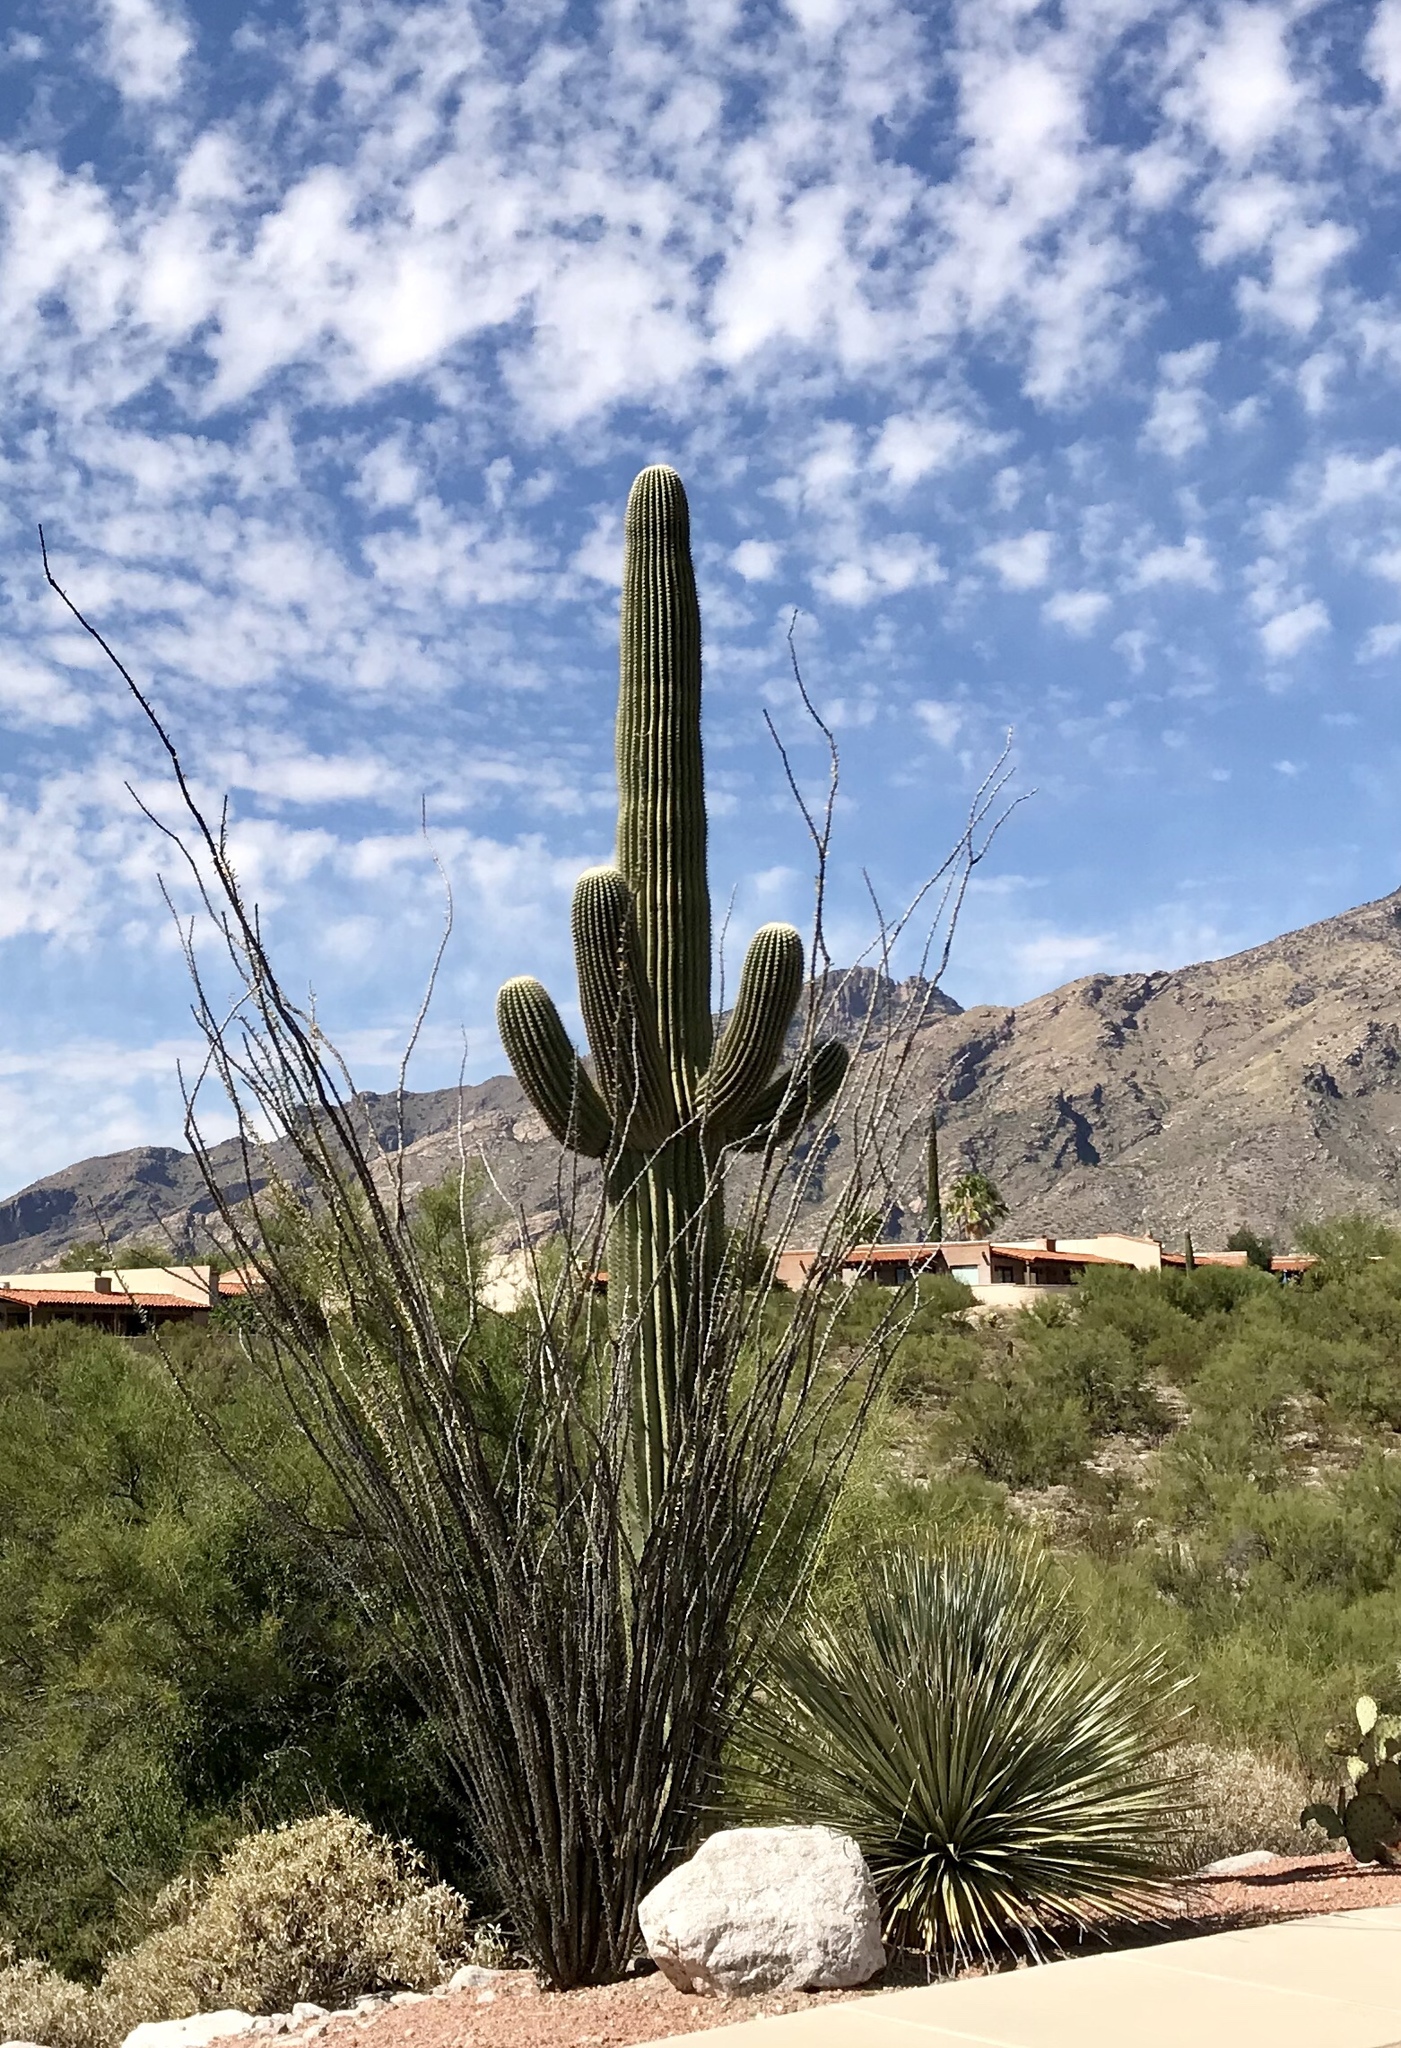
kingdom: Plantae
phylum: Tracheophyta
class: Magnoliopsida
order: Caryophyllales
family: Cactaceae
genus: Carnegiea
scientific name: Carnegiea gigantea
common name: Saguaro
